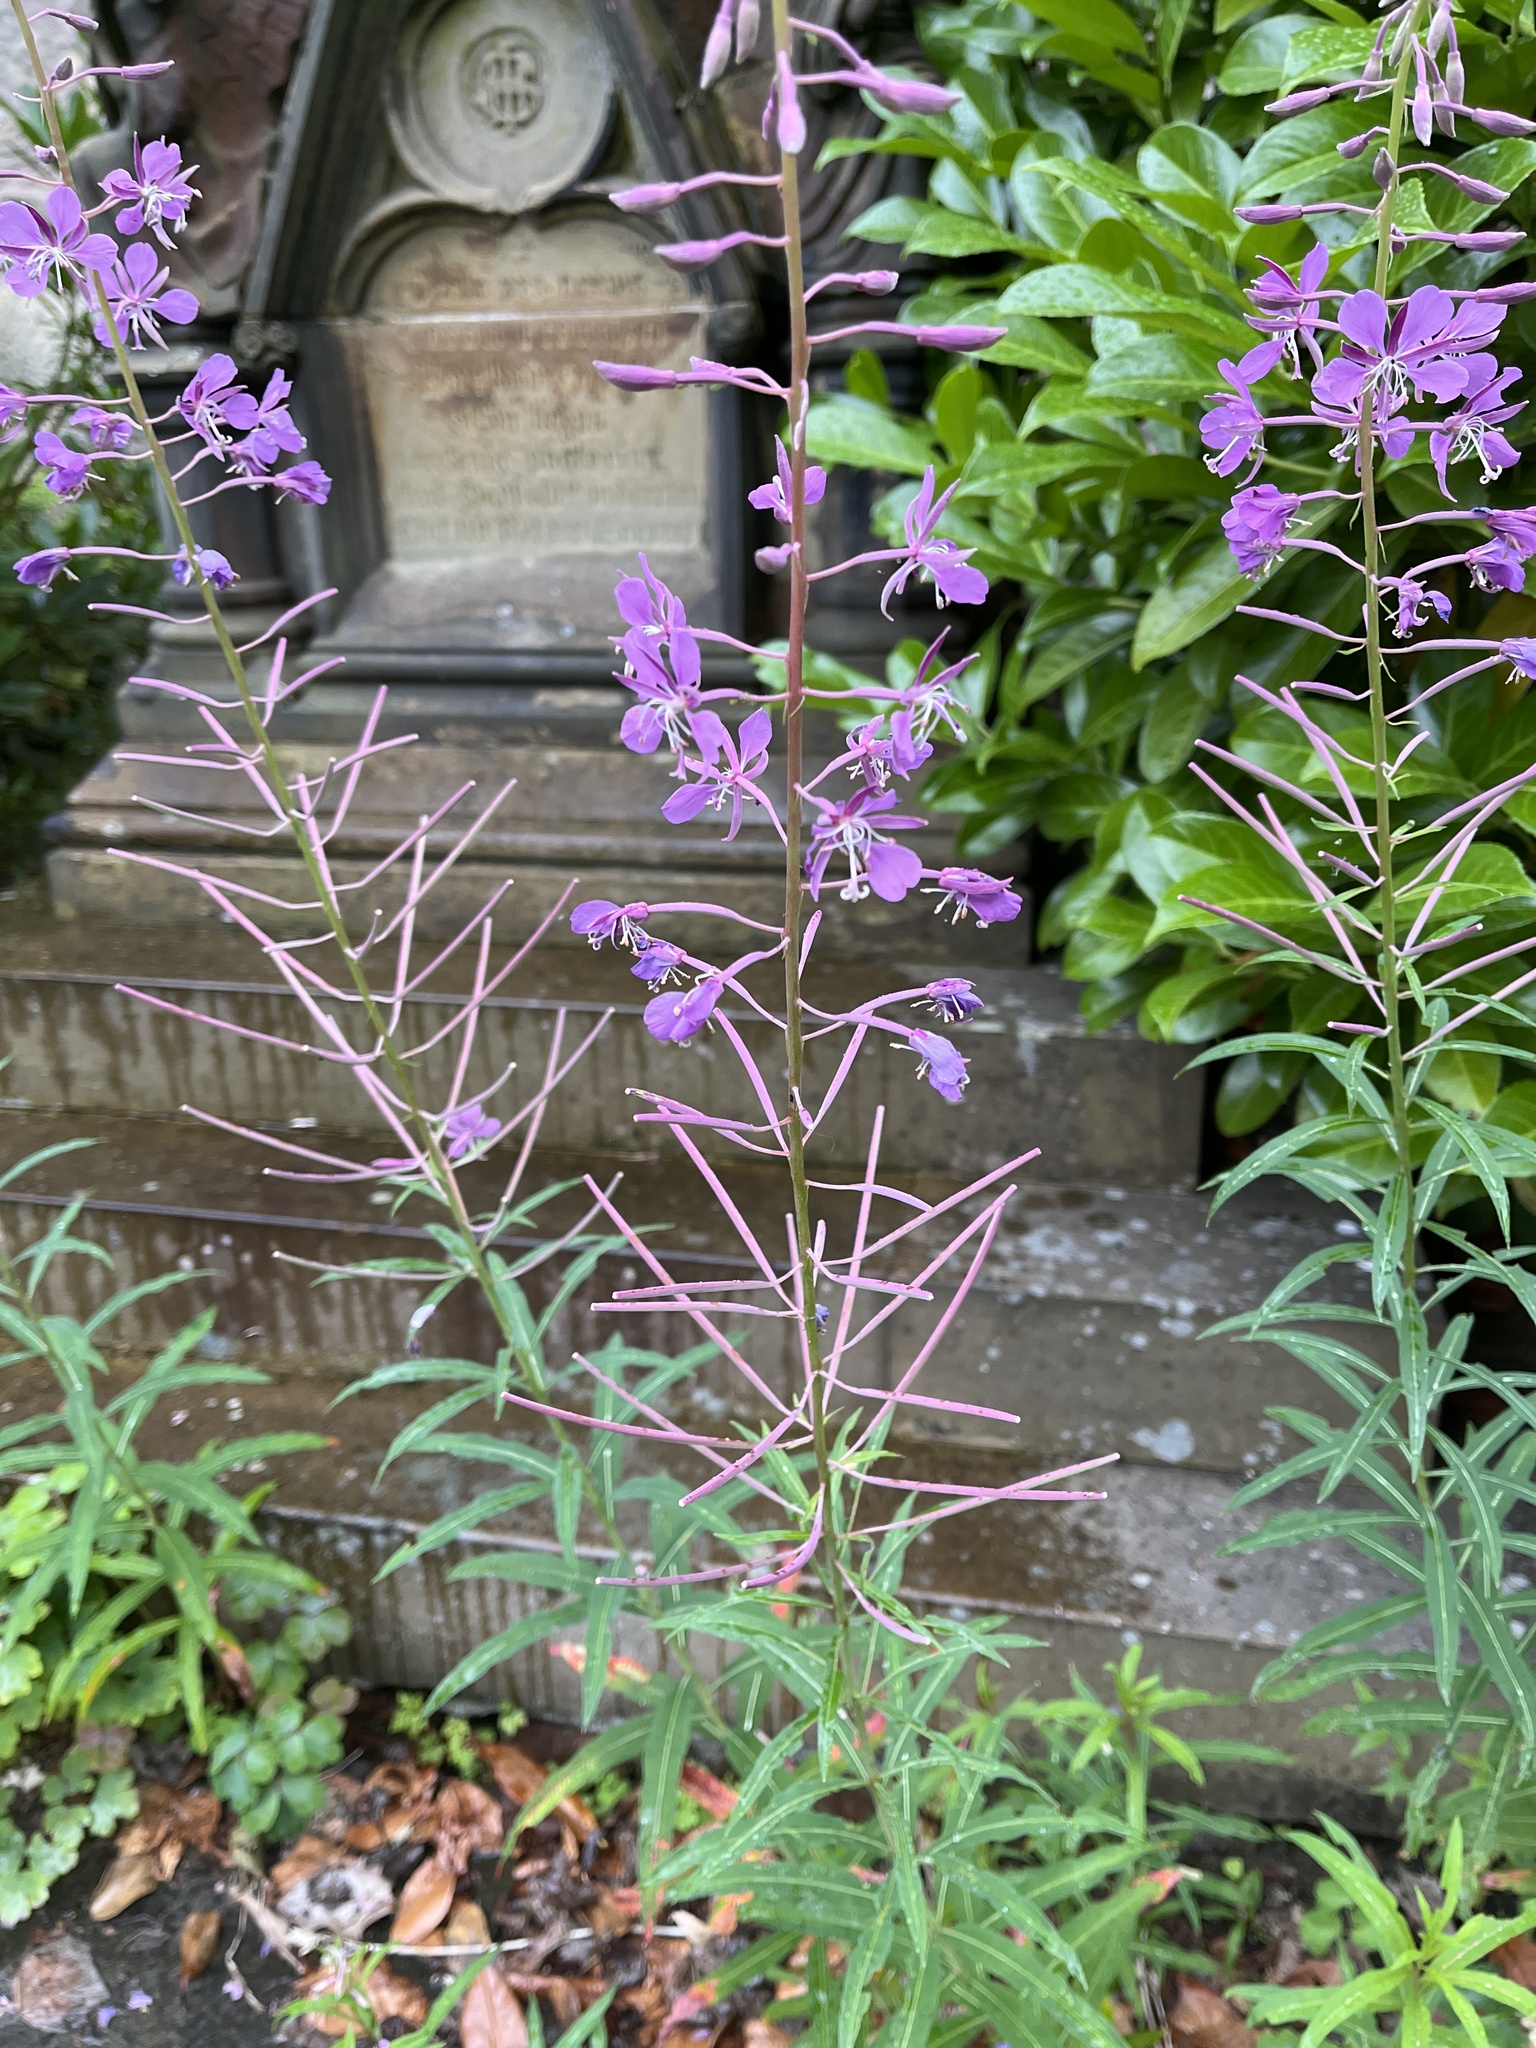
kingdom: Plantae
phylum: Tracheophyta
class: Magnoliopsida
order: Myrtales
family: Onagraceae
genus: Chamaenerion
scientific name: Chamaenerion angustifolium
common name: Fireweed
